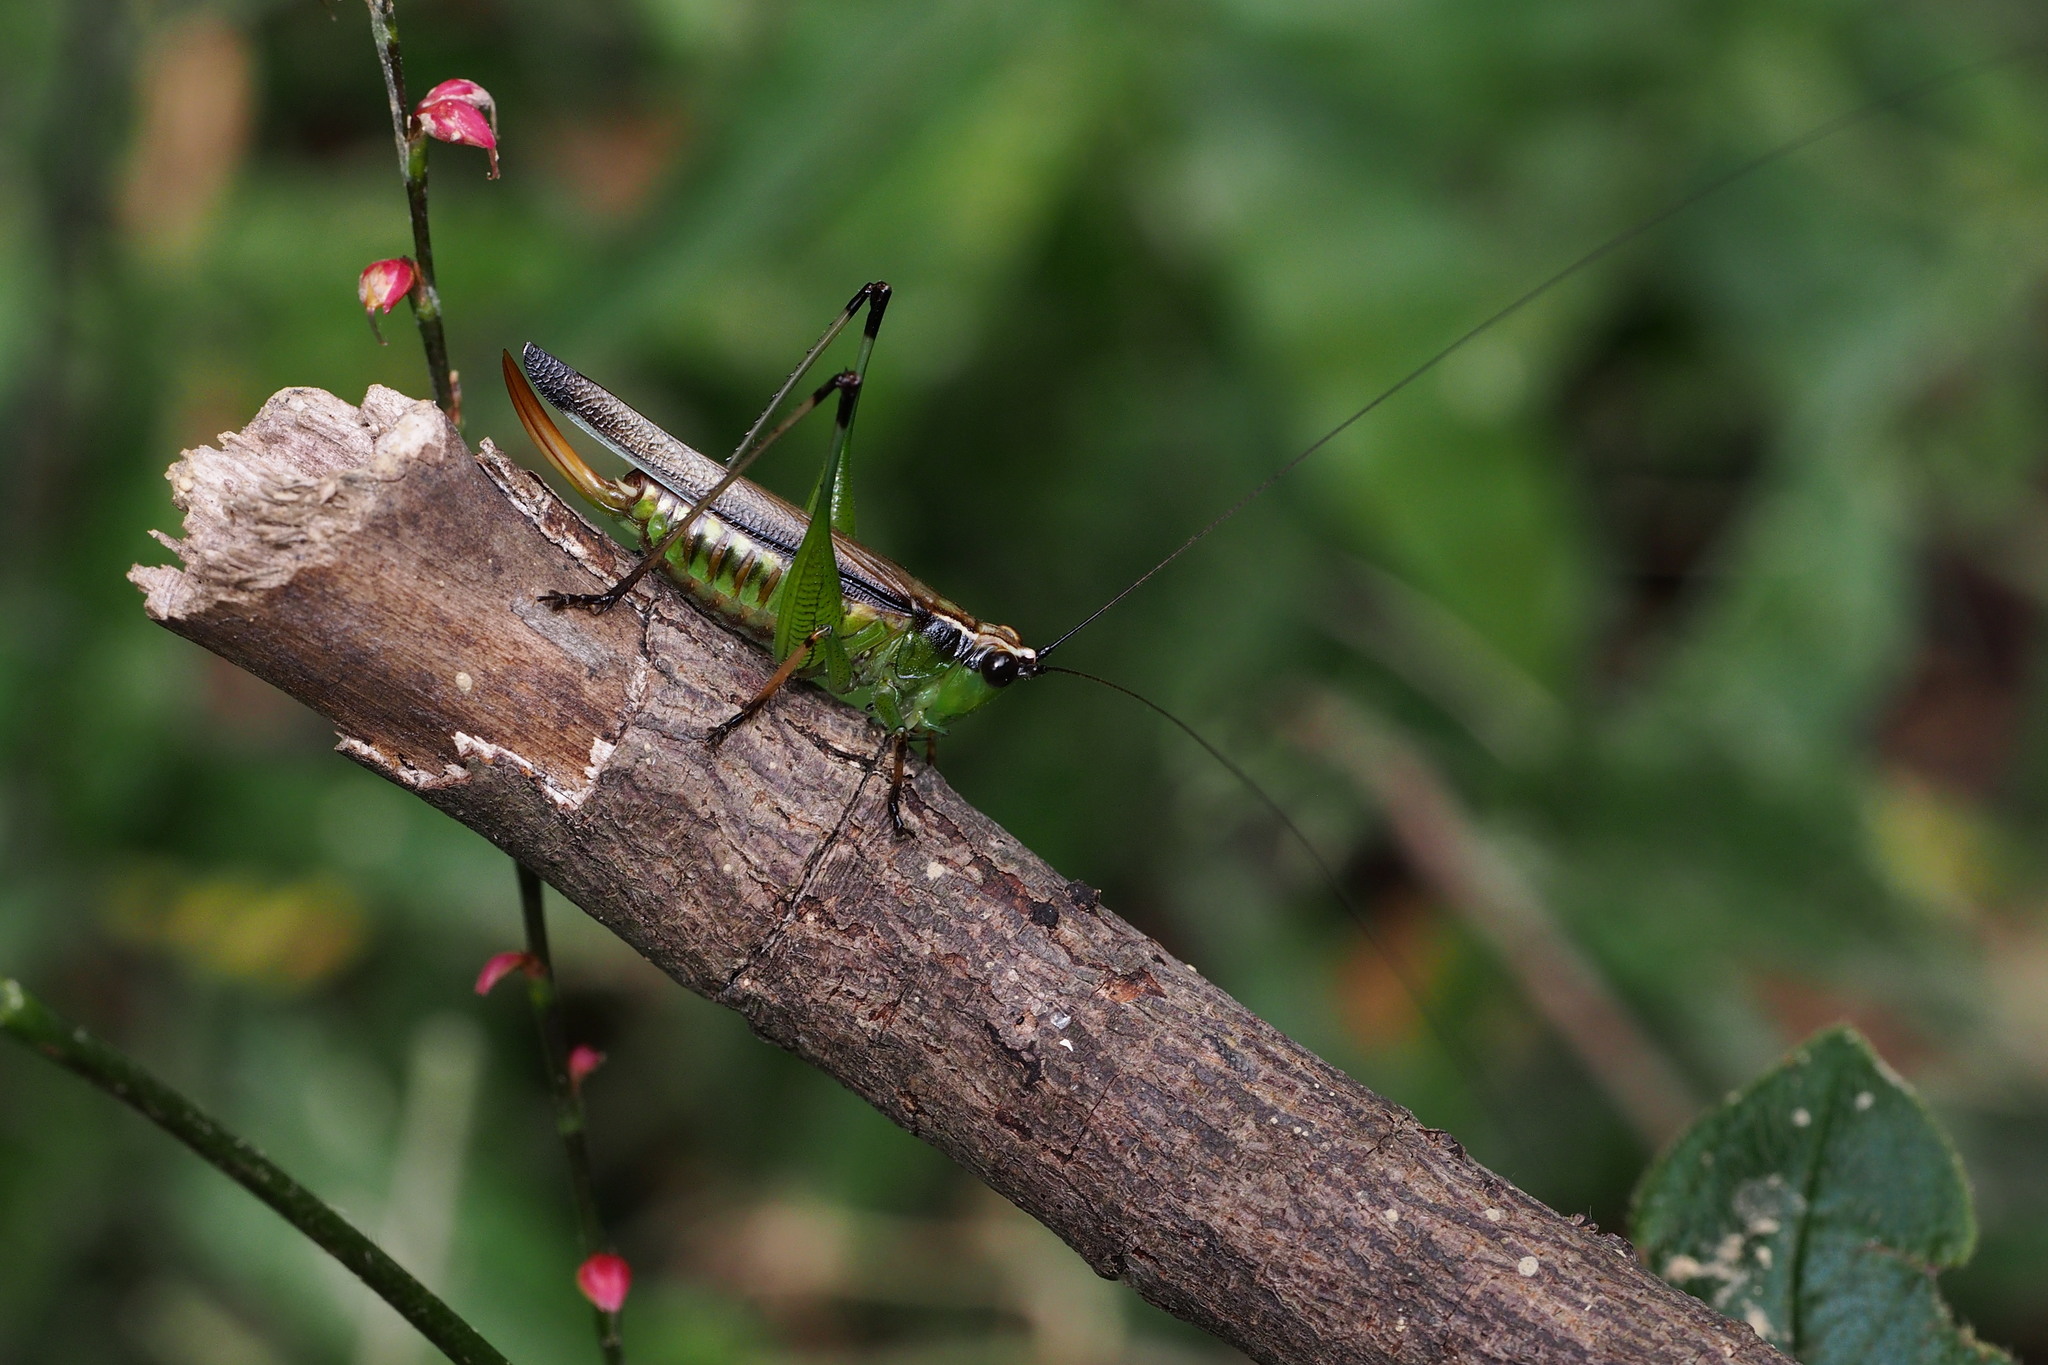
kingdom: Animalia
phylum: Arthropoda
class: Insecta
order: Orthoptera
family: Tettigoniidae
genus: Conocephalus
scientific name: Conocephalus melaenus
